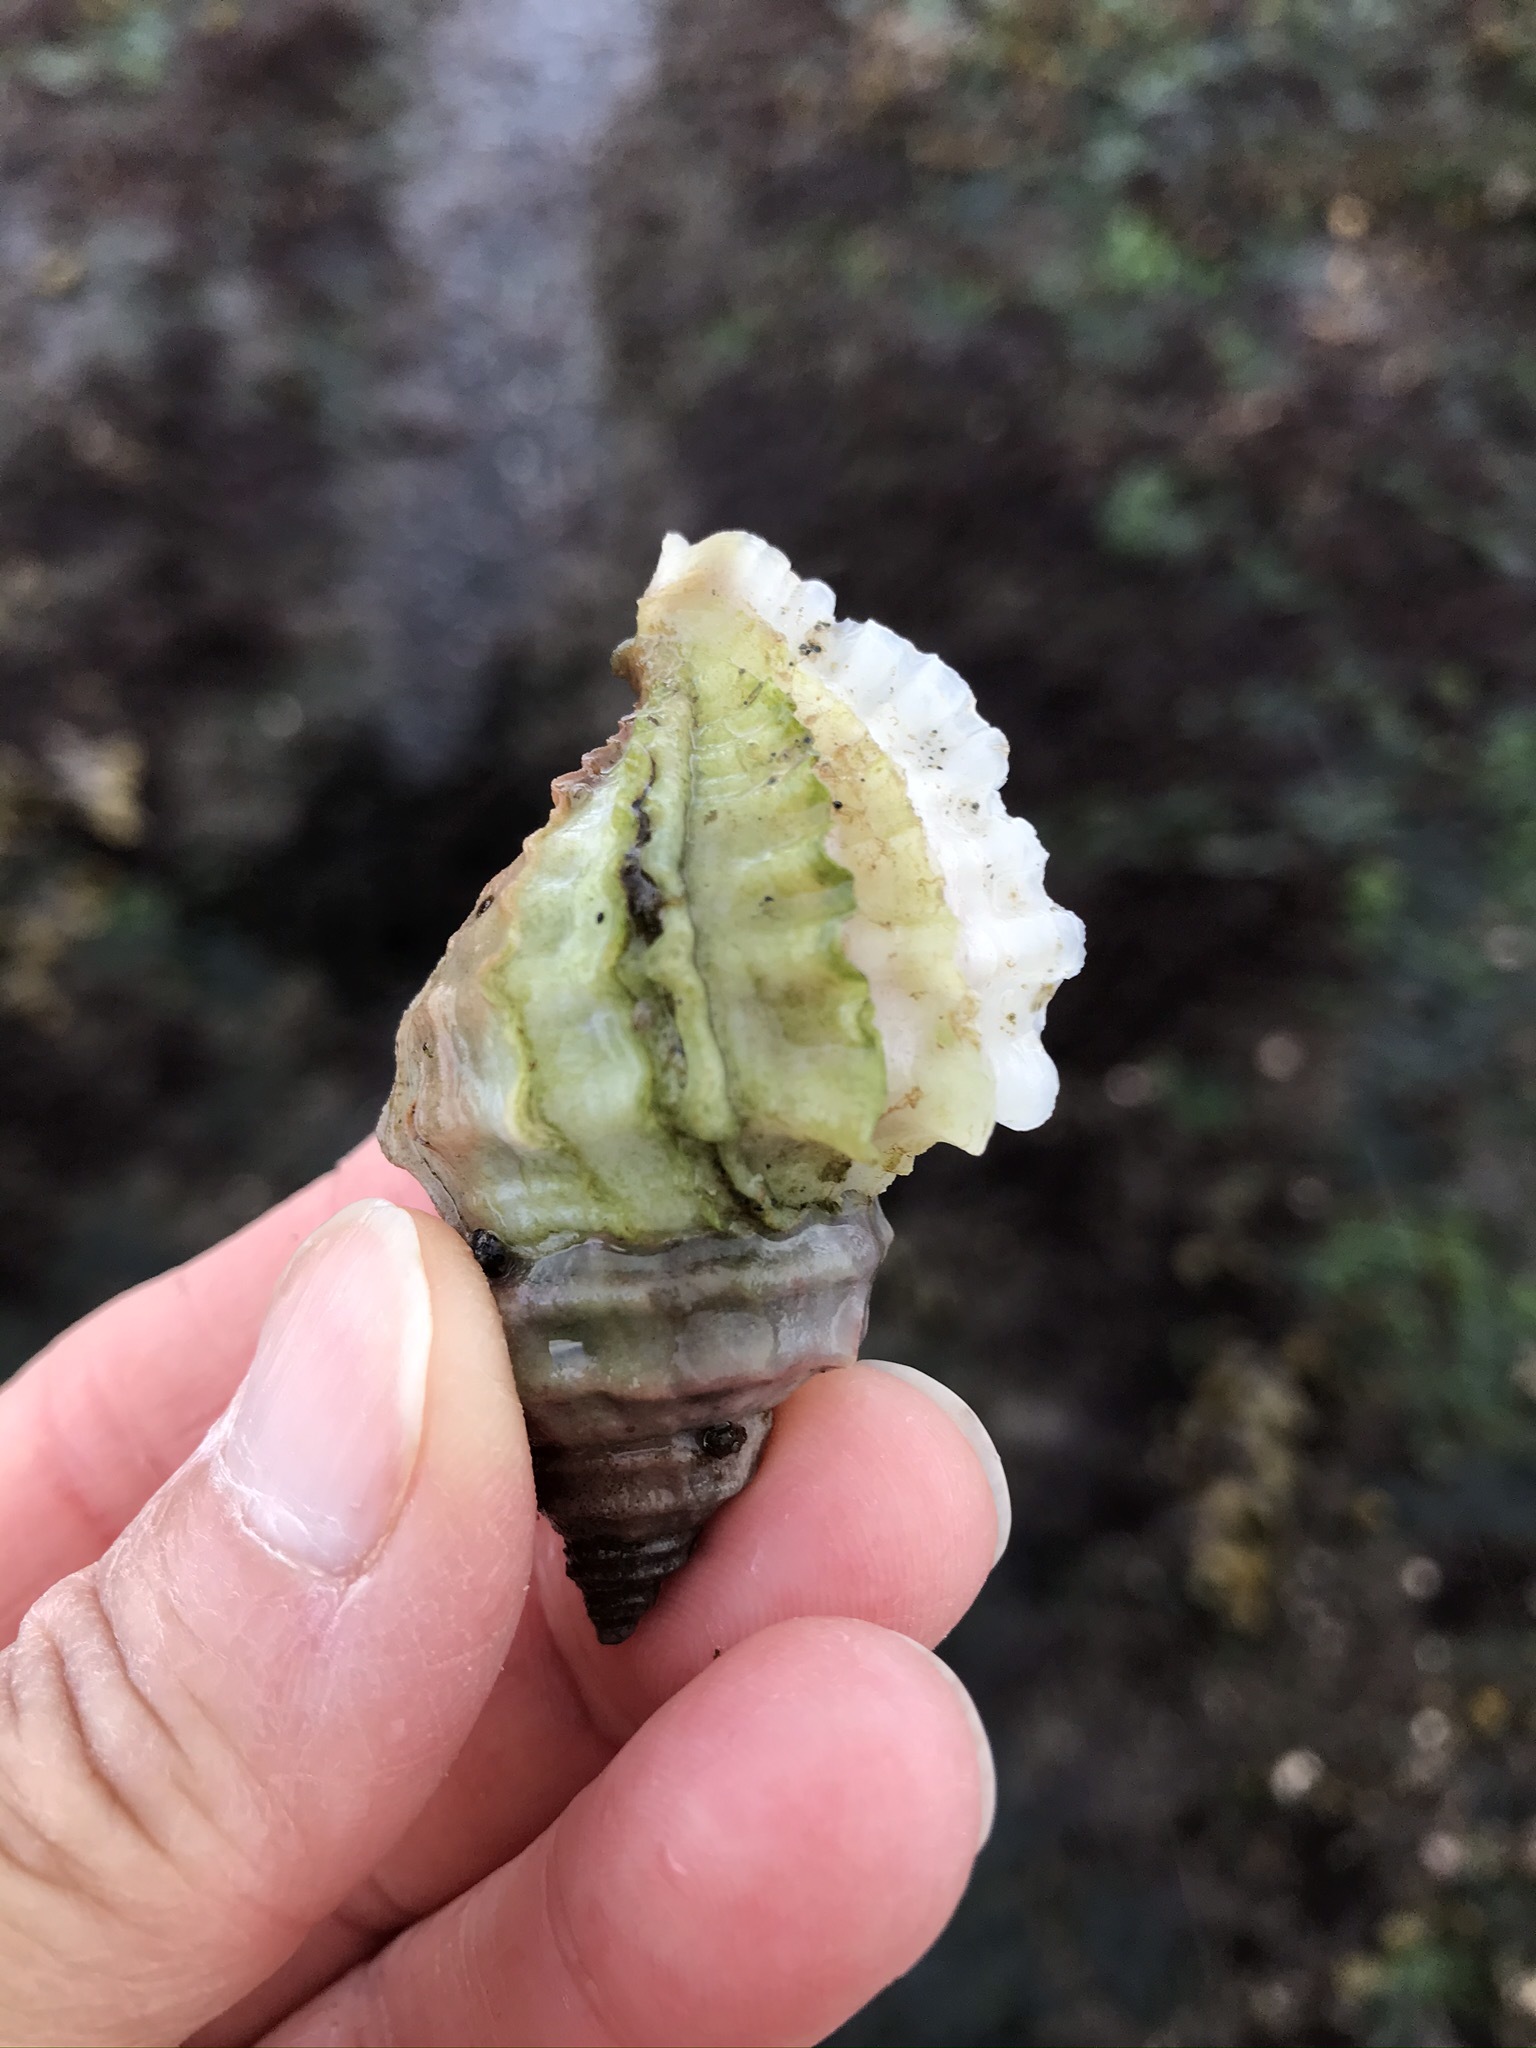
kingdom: Animalia
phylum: Mollusca
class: Gastropoda
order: Neogastropoda
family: Muricidae
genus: Nucella
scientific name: Nucella lamellosa
